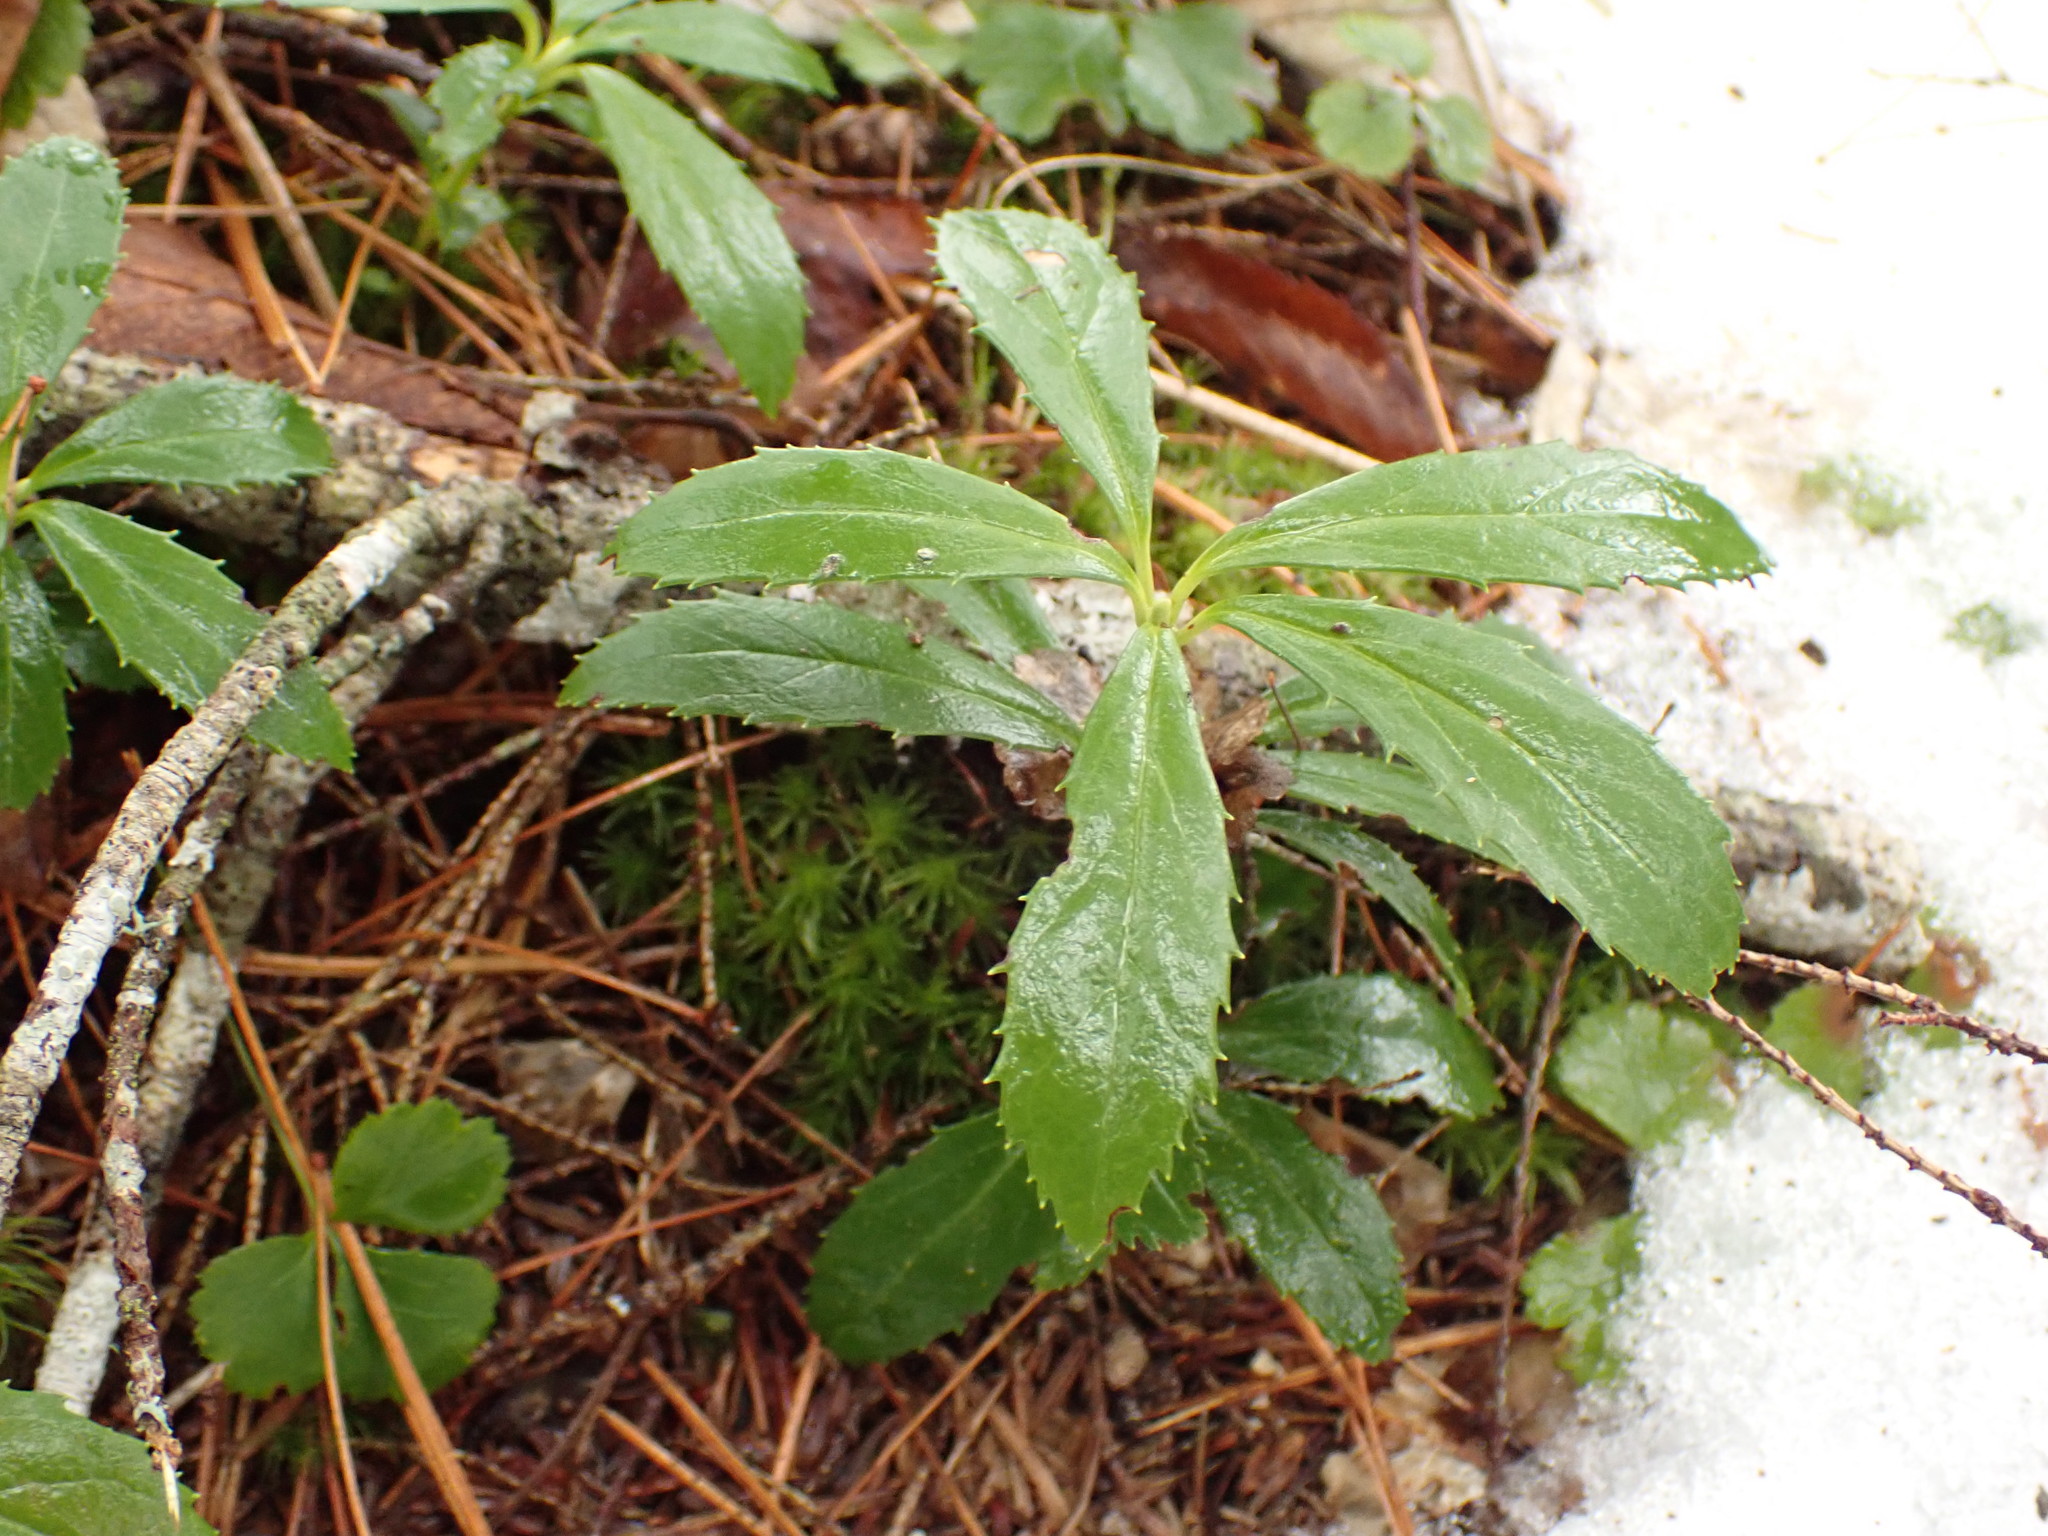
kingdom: Plantae
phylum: Tracheophyta
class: Magnoliopsida
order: Ericales
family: Ericaceae
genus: Chimaphila
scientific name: Chimaphila umbellata
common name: Pipsissewa
